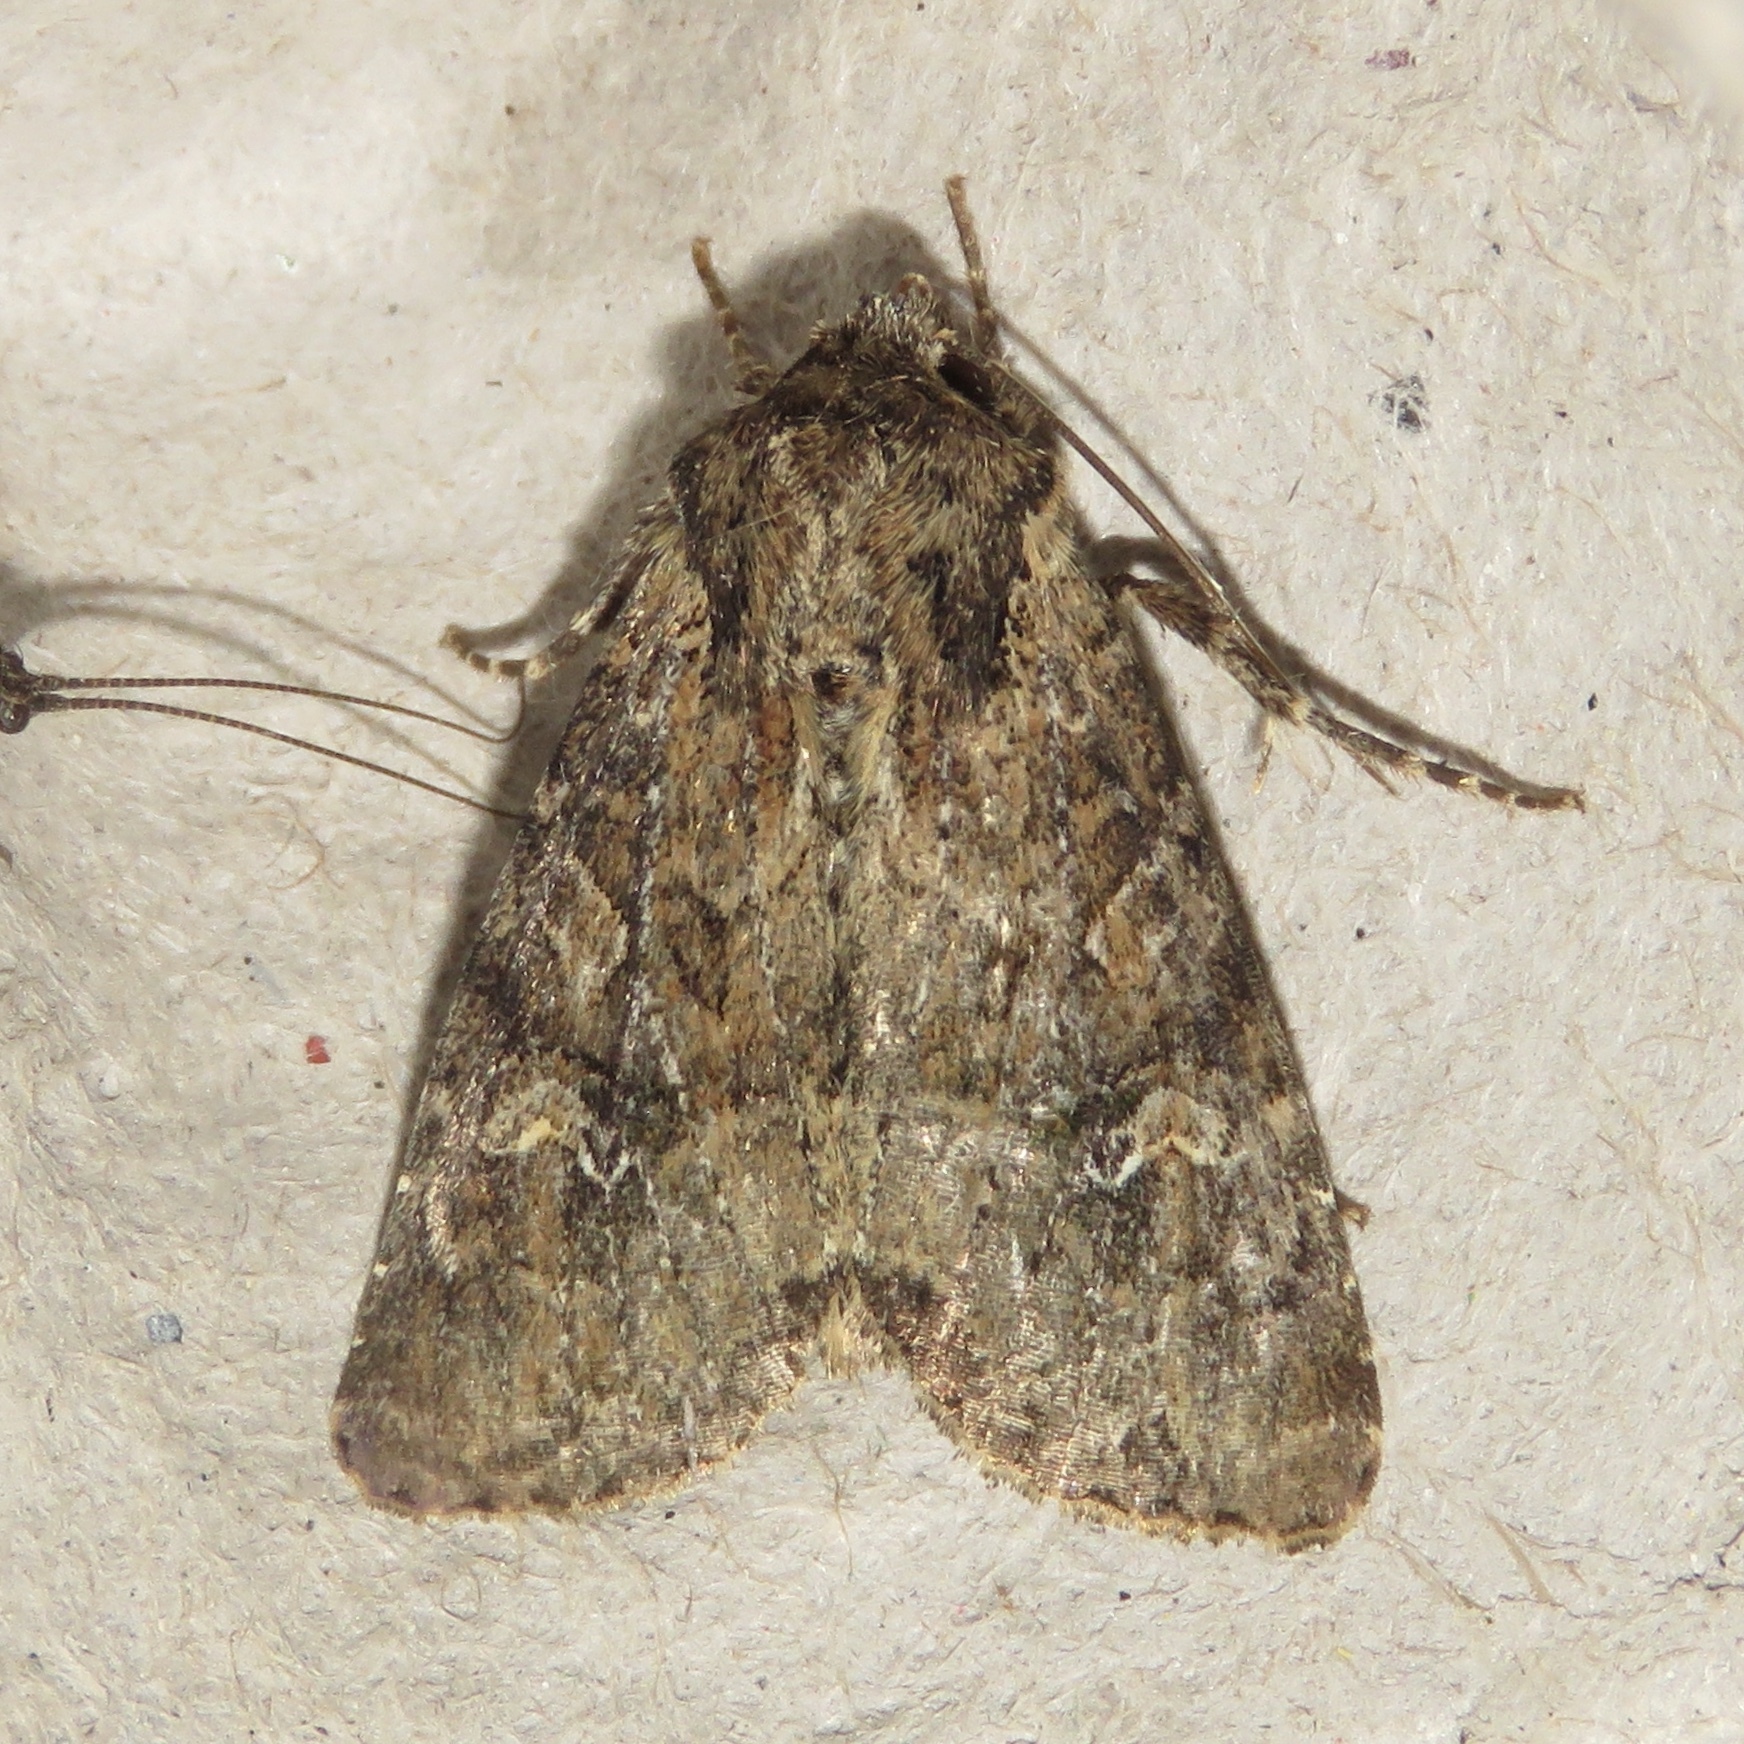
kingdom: Animalia
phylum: Arthropoda
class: Insecta
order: Lepidoptera
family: Noctuidae
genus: Apamea
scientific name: Apamea unanimis
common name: Small clouded brindle
